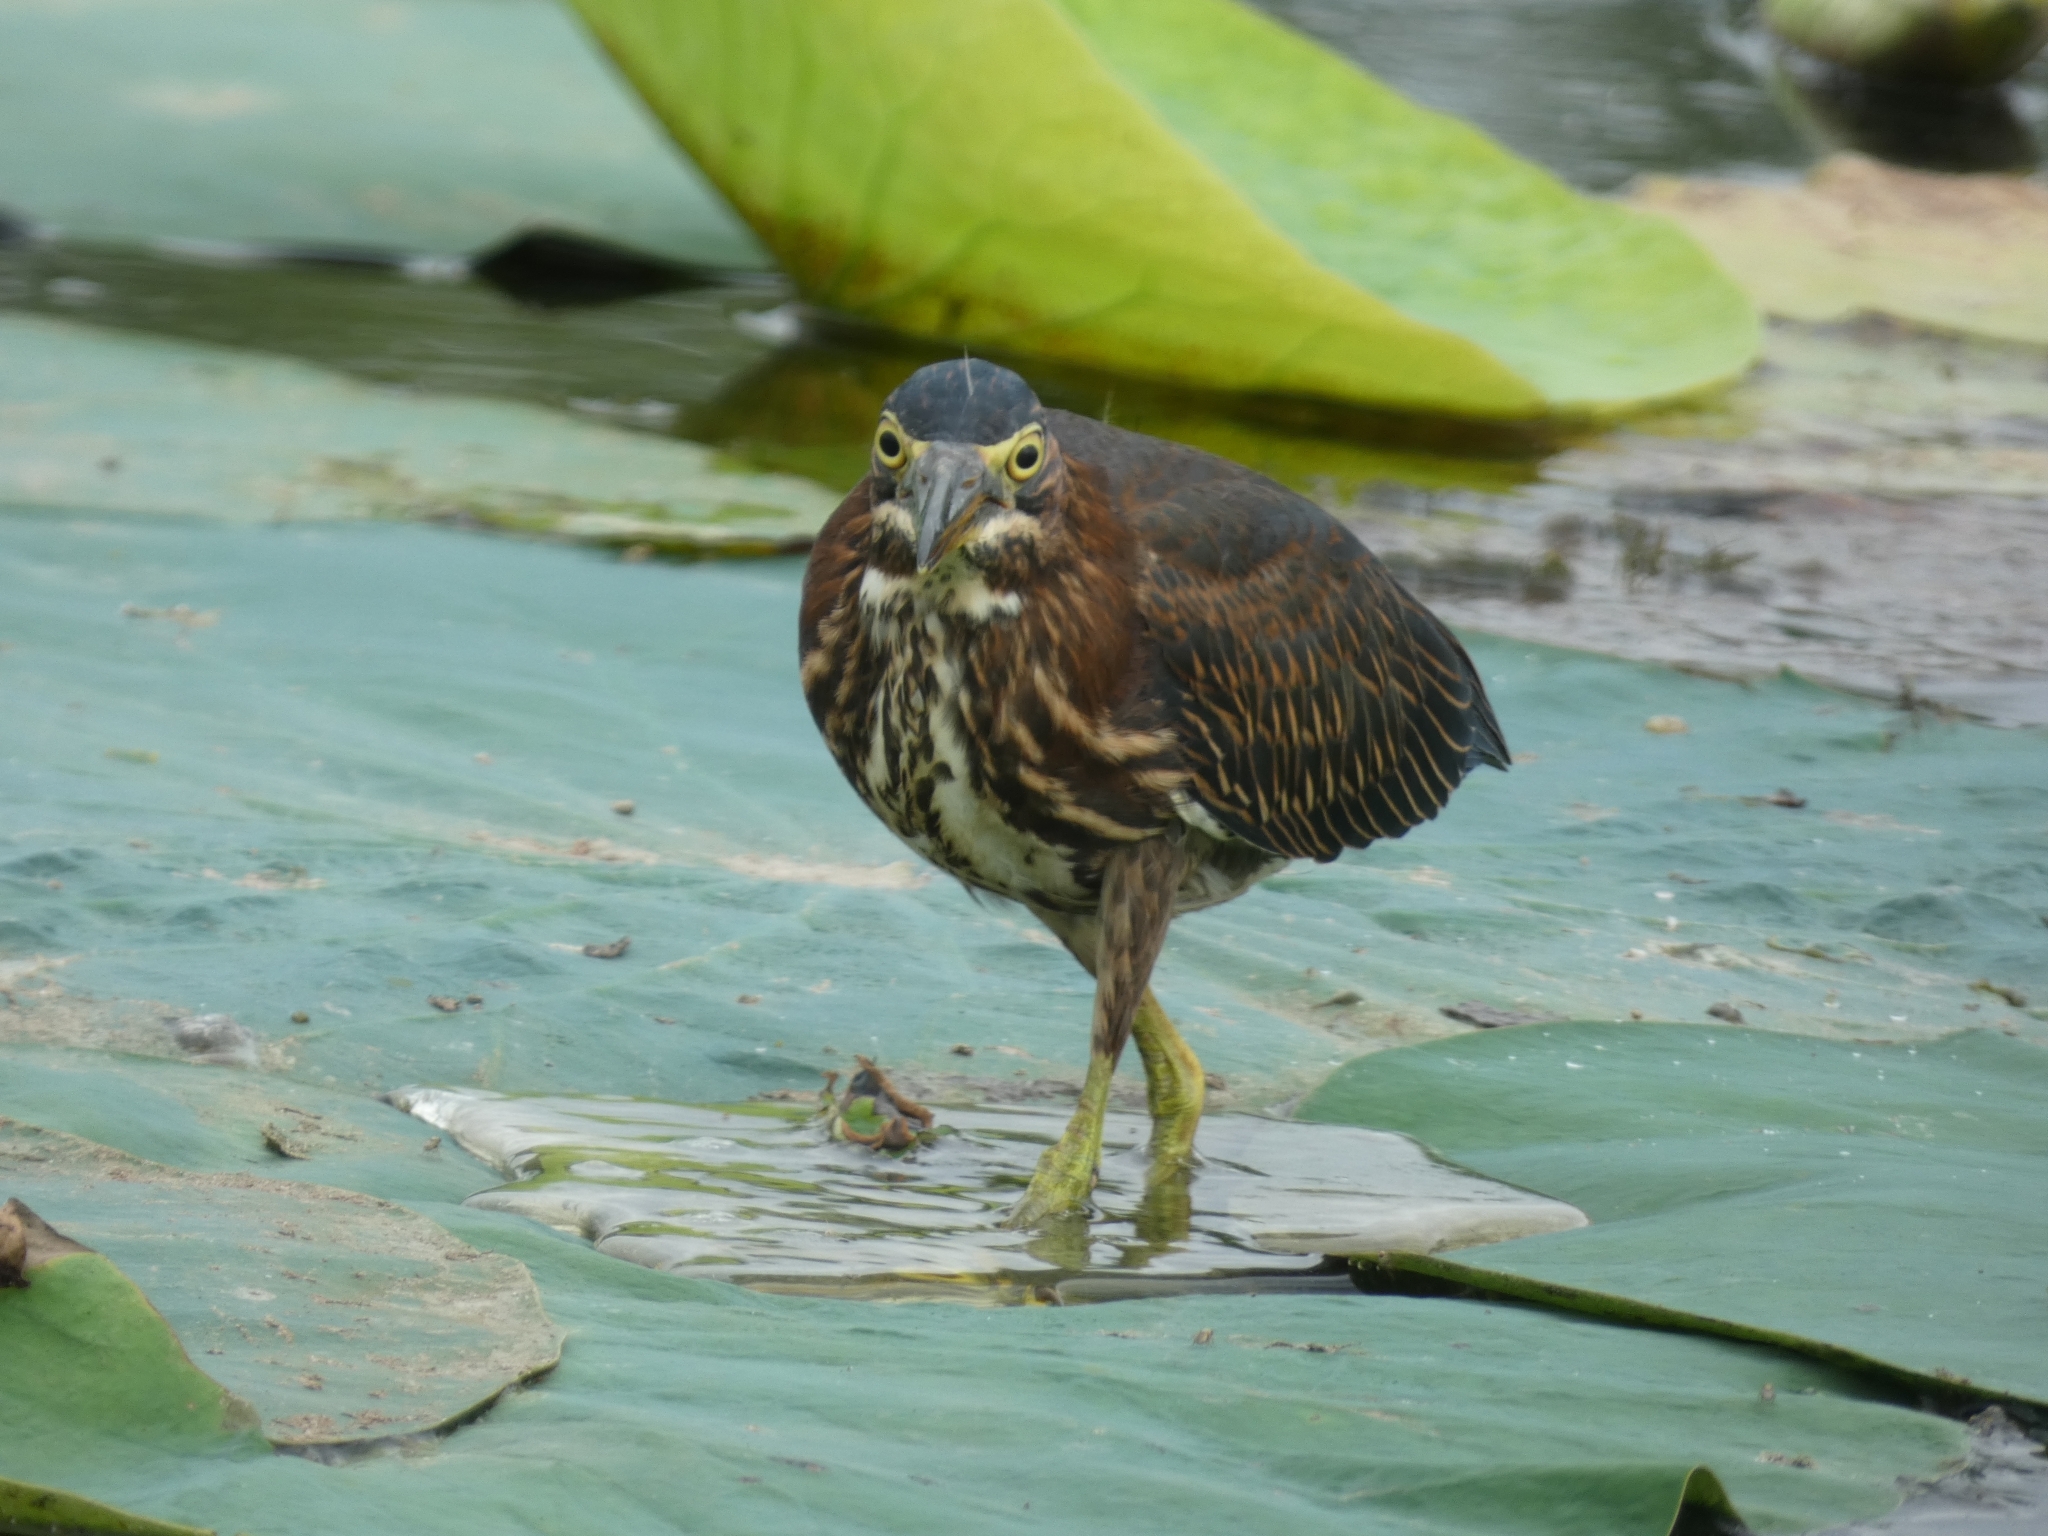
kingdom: Animalia
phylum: Chordata
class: Aves
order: Pelecaniformes
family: Ardeidae
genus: Butorides
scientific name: Butorides virescens
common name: Green heron
